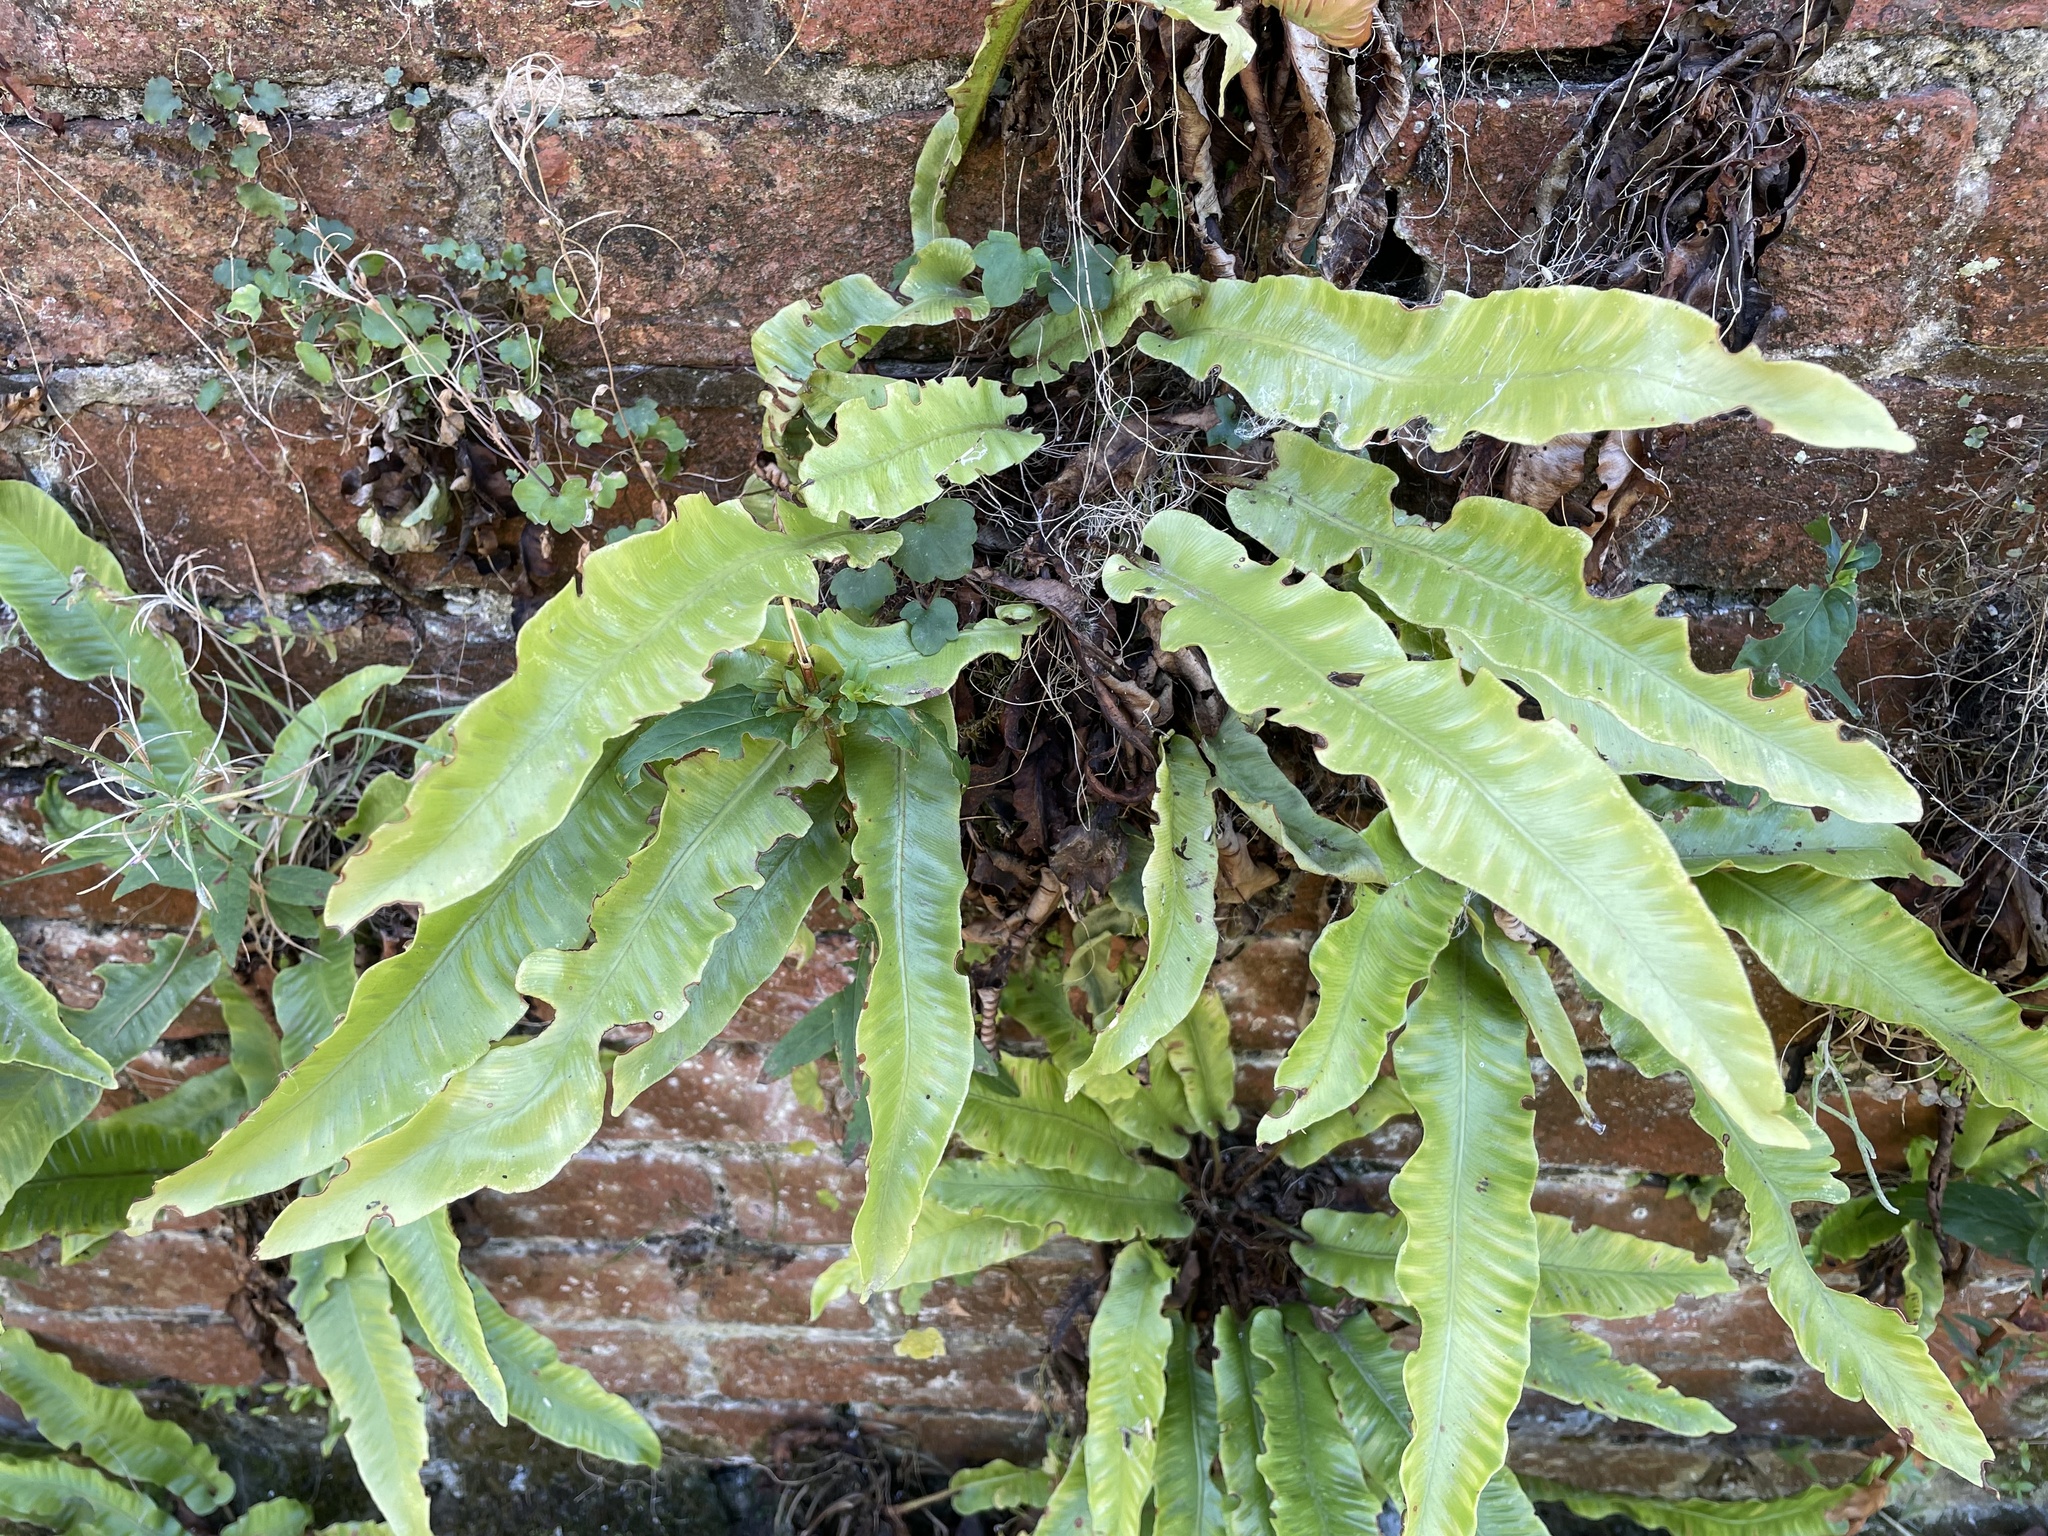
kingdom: Plantae
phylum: Tracheophyta
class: Polypodiopsida
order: Polypodiales
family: Aspleniaceae
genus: Asplenium
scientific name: Asplenium scolopendrium
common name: Hart's-tongue fern
